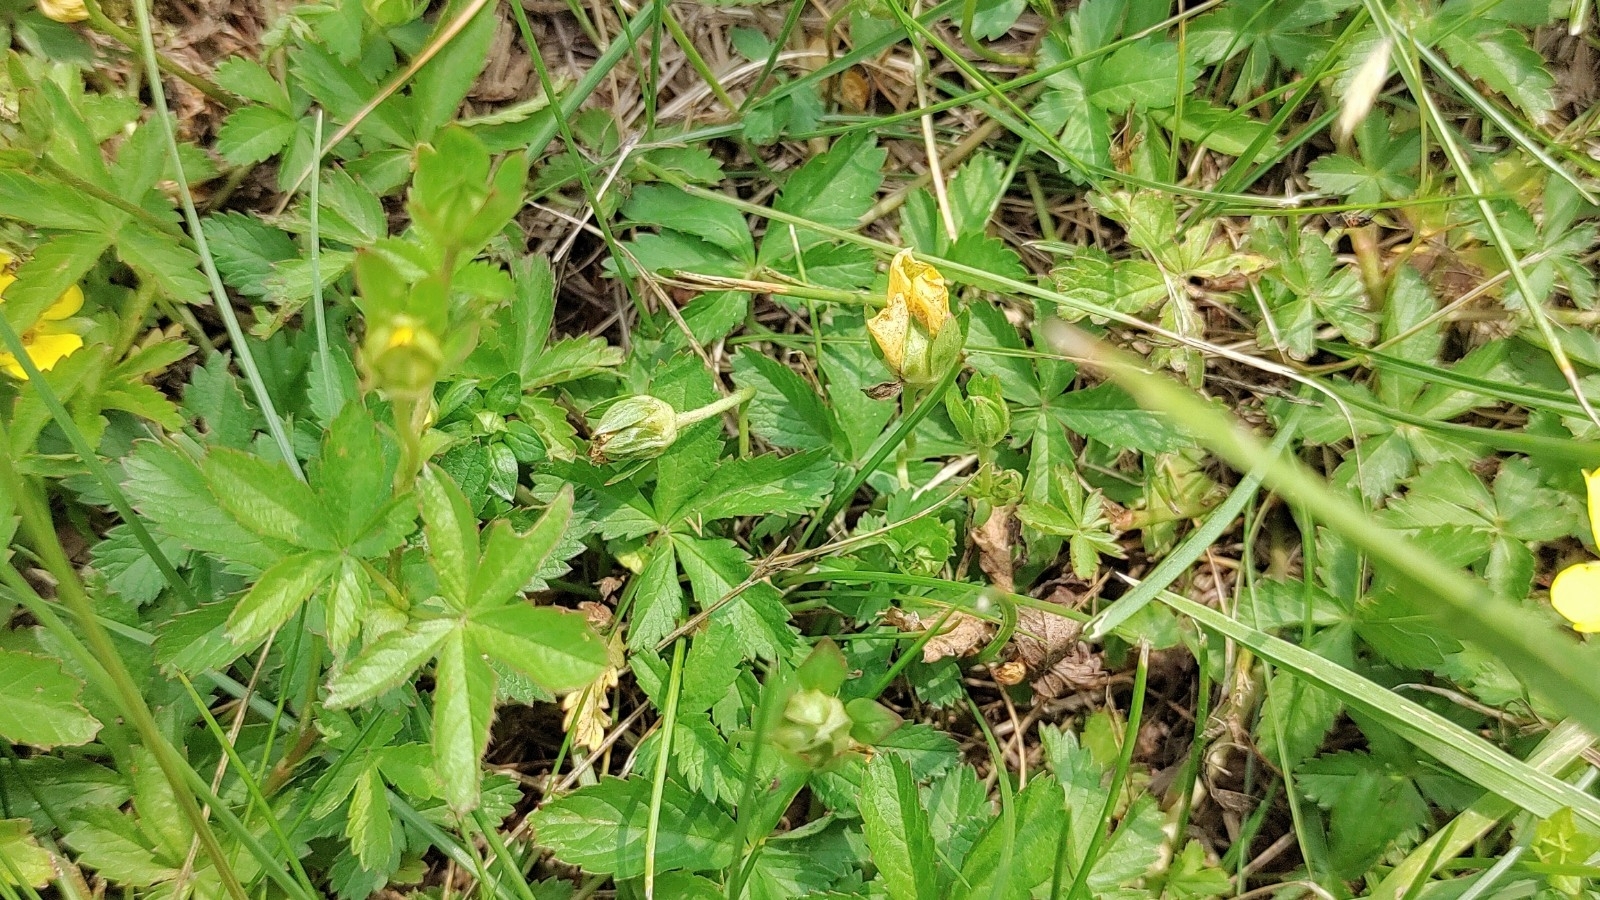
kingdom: Plantae
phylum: Tracheophyta
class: Magnoliopsida
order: Rosales
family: Rosaceae
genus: Potentilla
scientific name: Potentilla reptans
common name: Creeping cinquefoil
